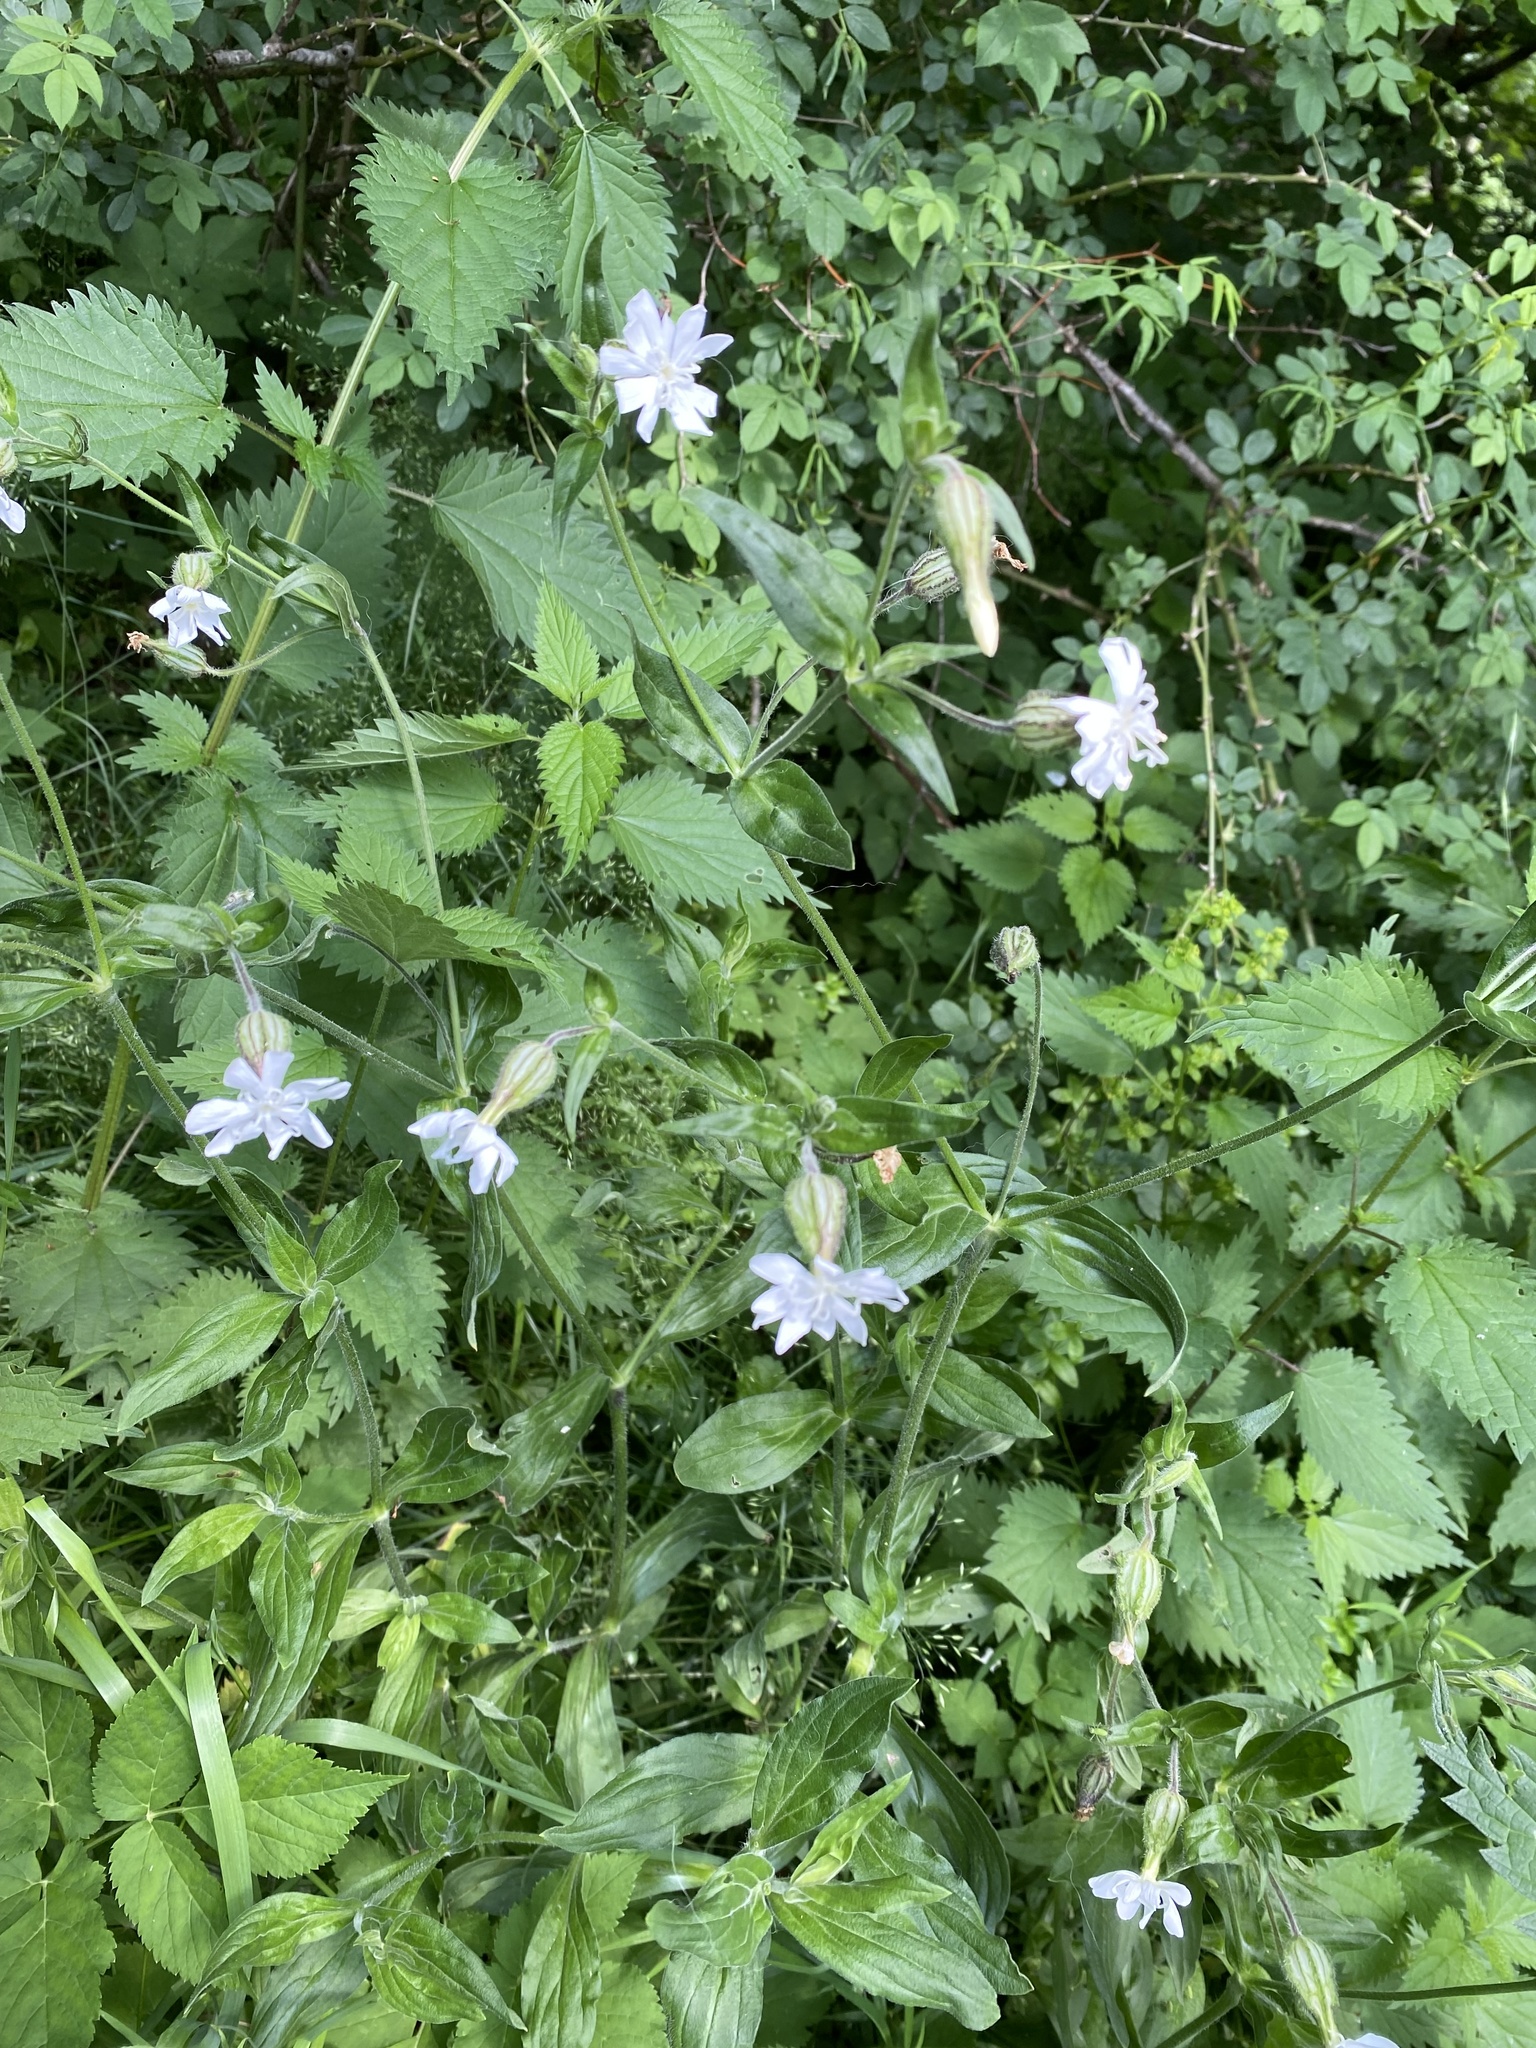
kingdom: Plantae
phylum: Tracheophyta
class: Magnoliopsida
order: Caryophyllales
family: Caryophyllaceae
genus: Silene
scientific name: Silene latifolia
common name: White campion
